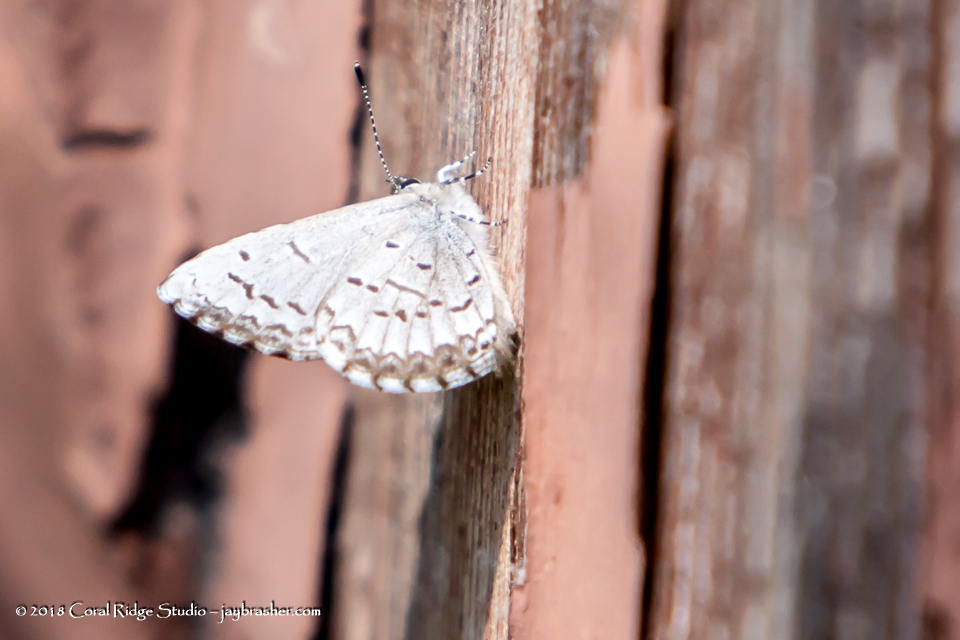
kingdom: Animalia
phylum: Arthropoda
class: Insecta
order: Lepidoptera
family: Lycaenidae
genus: Celastrina
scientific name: Celastrina lucia
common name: Lucia azure
